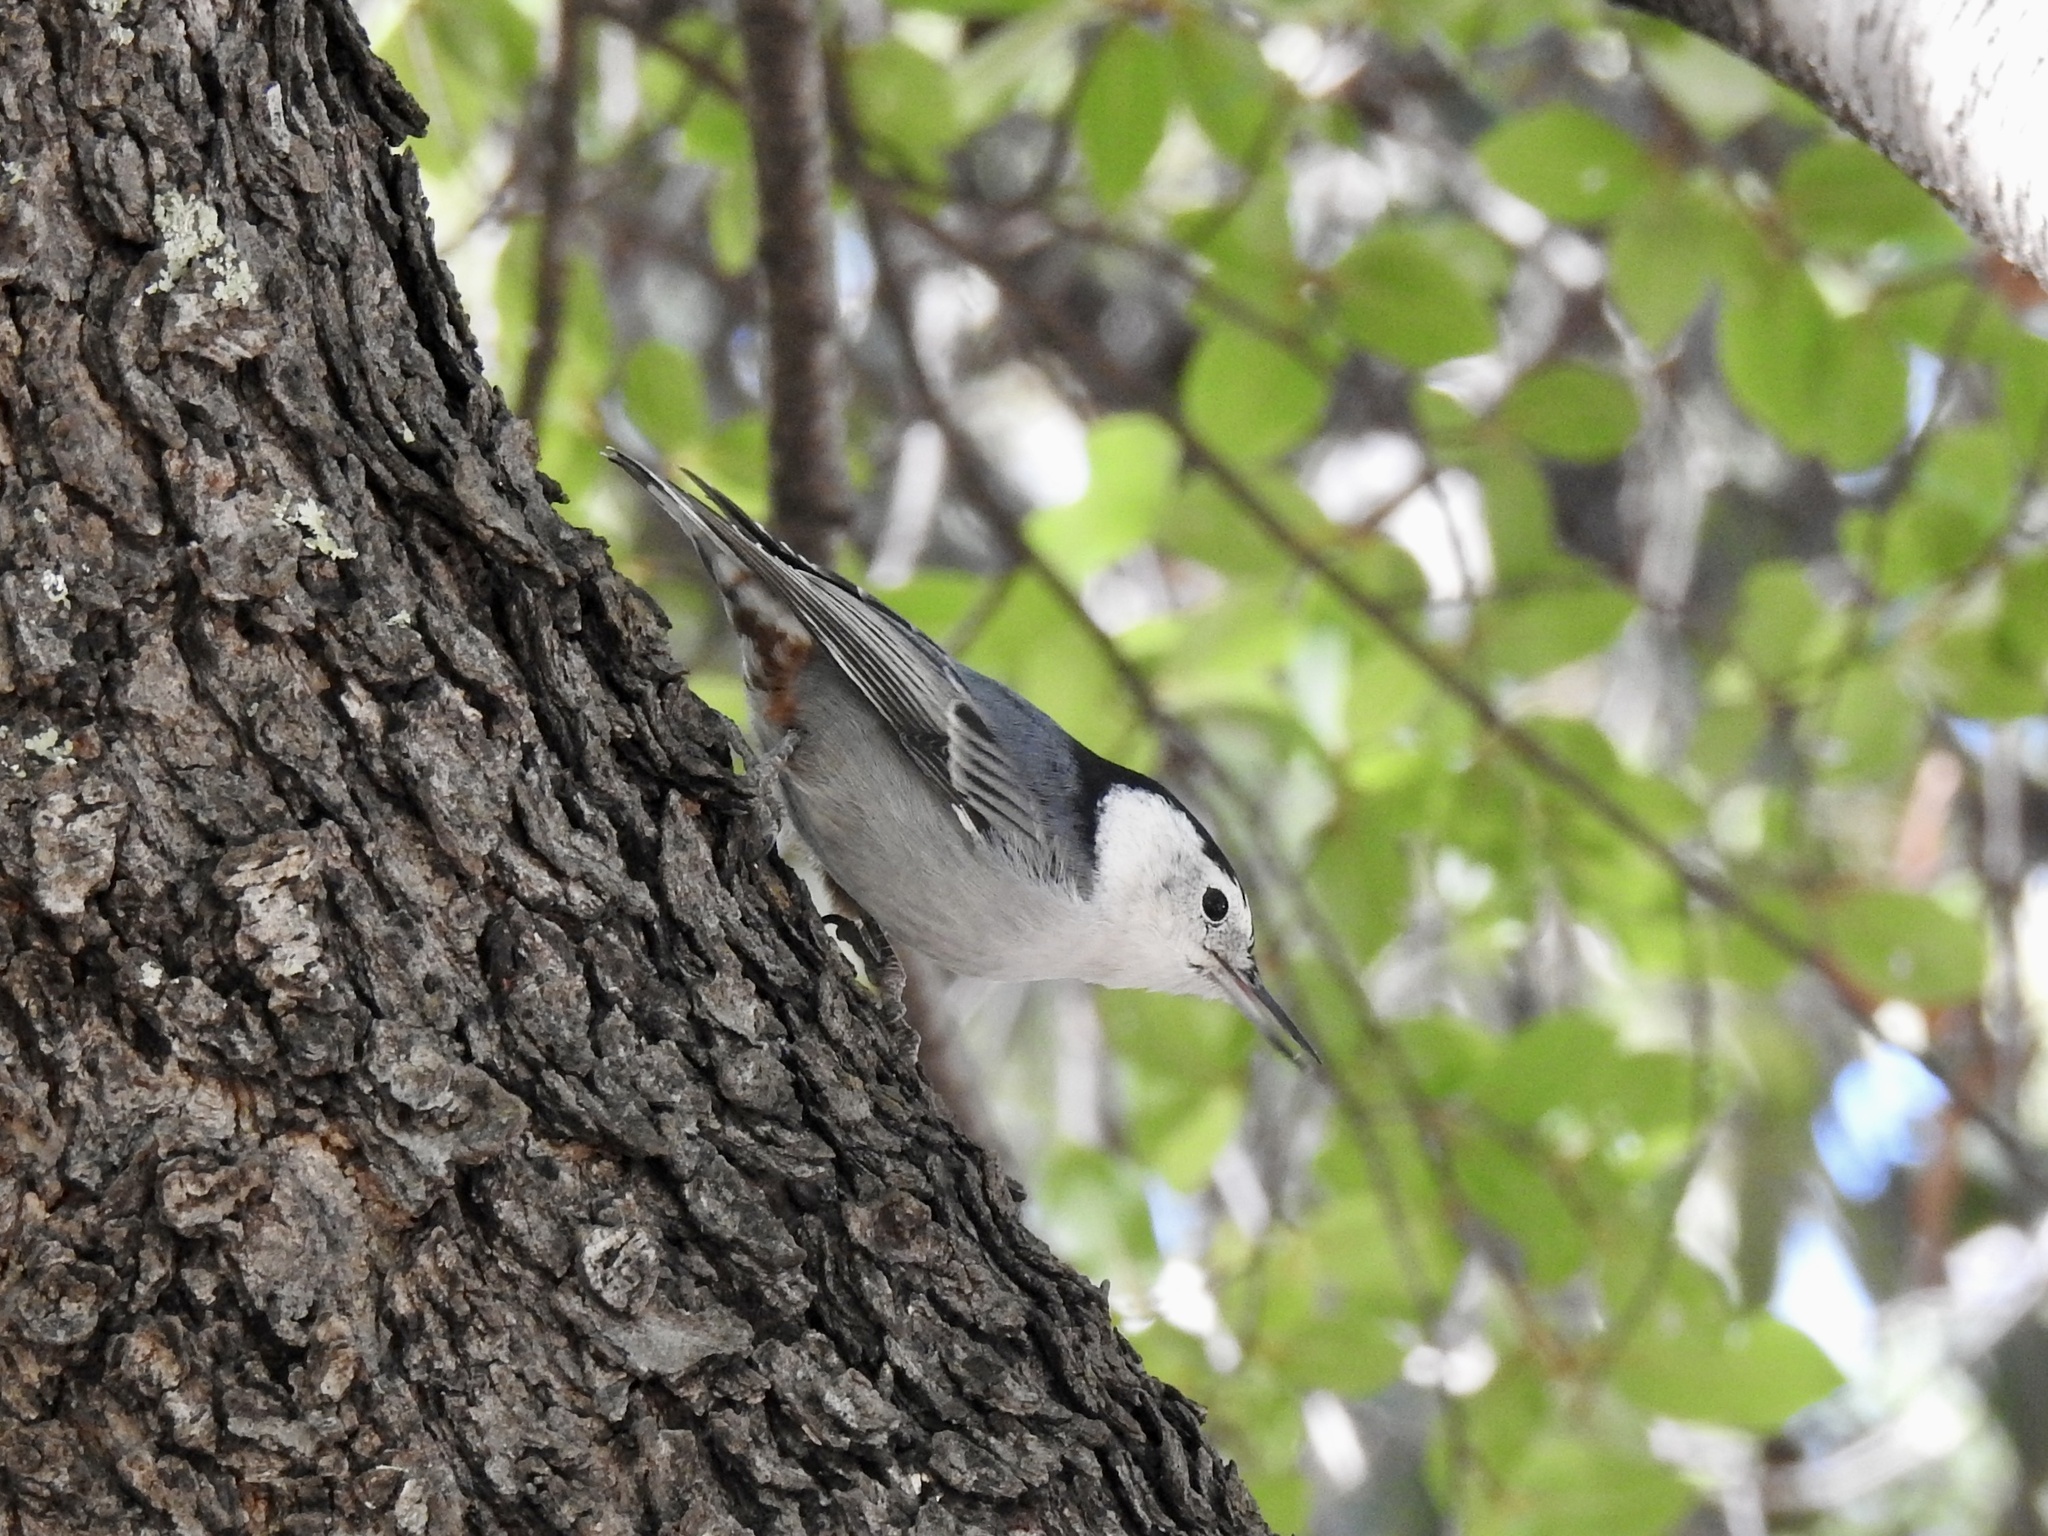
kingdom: Animalia
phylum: Chordata
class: Aves
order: Passeriformes
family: Sittidae
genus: Sitta
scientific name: Sitta carolinensis
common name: White-breasted nuthatch
